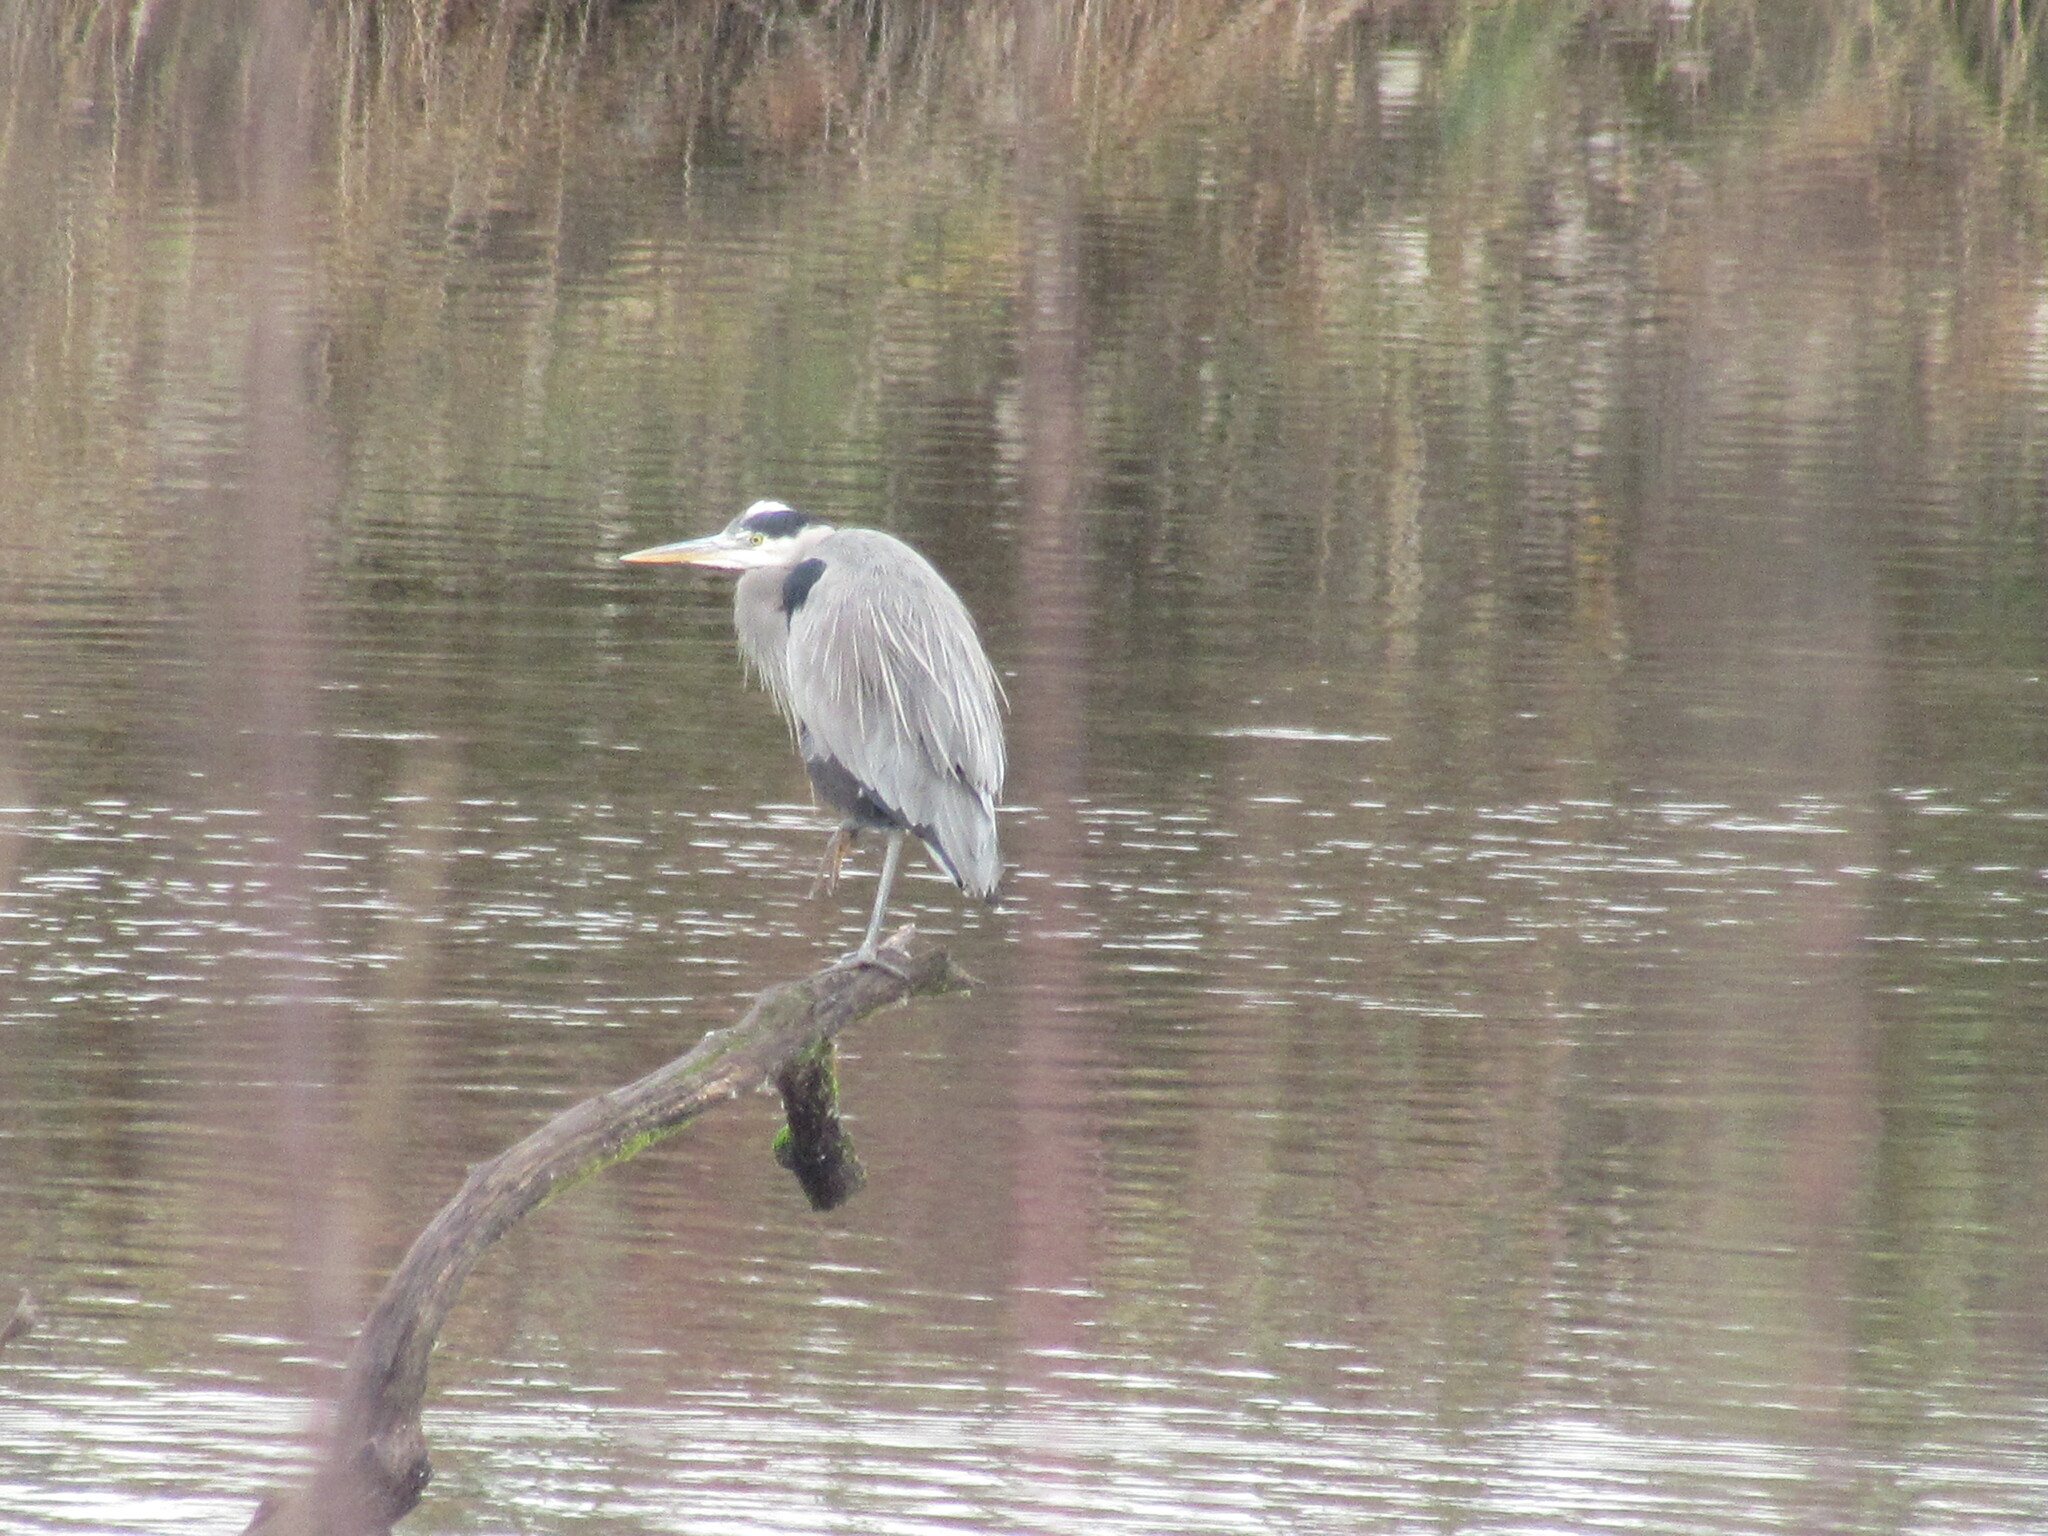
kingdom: Animalia
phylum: Chordata
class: Aves
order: Pelecaniformes
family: Ardeidae
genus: Ardea
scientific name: Ardea herodias
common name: Great blue heron
